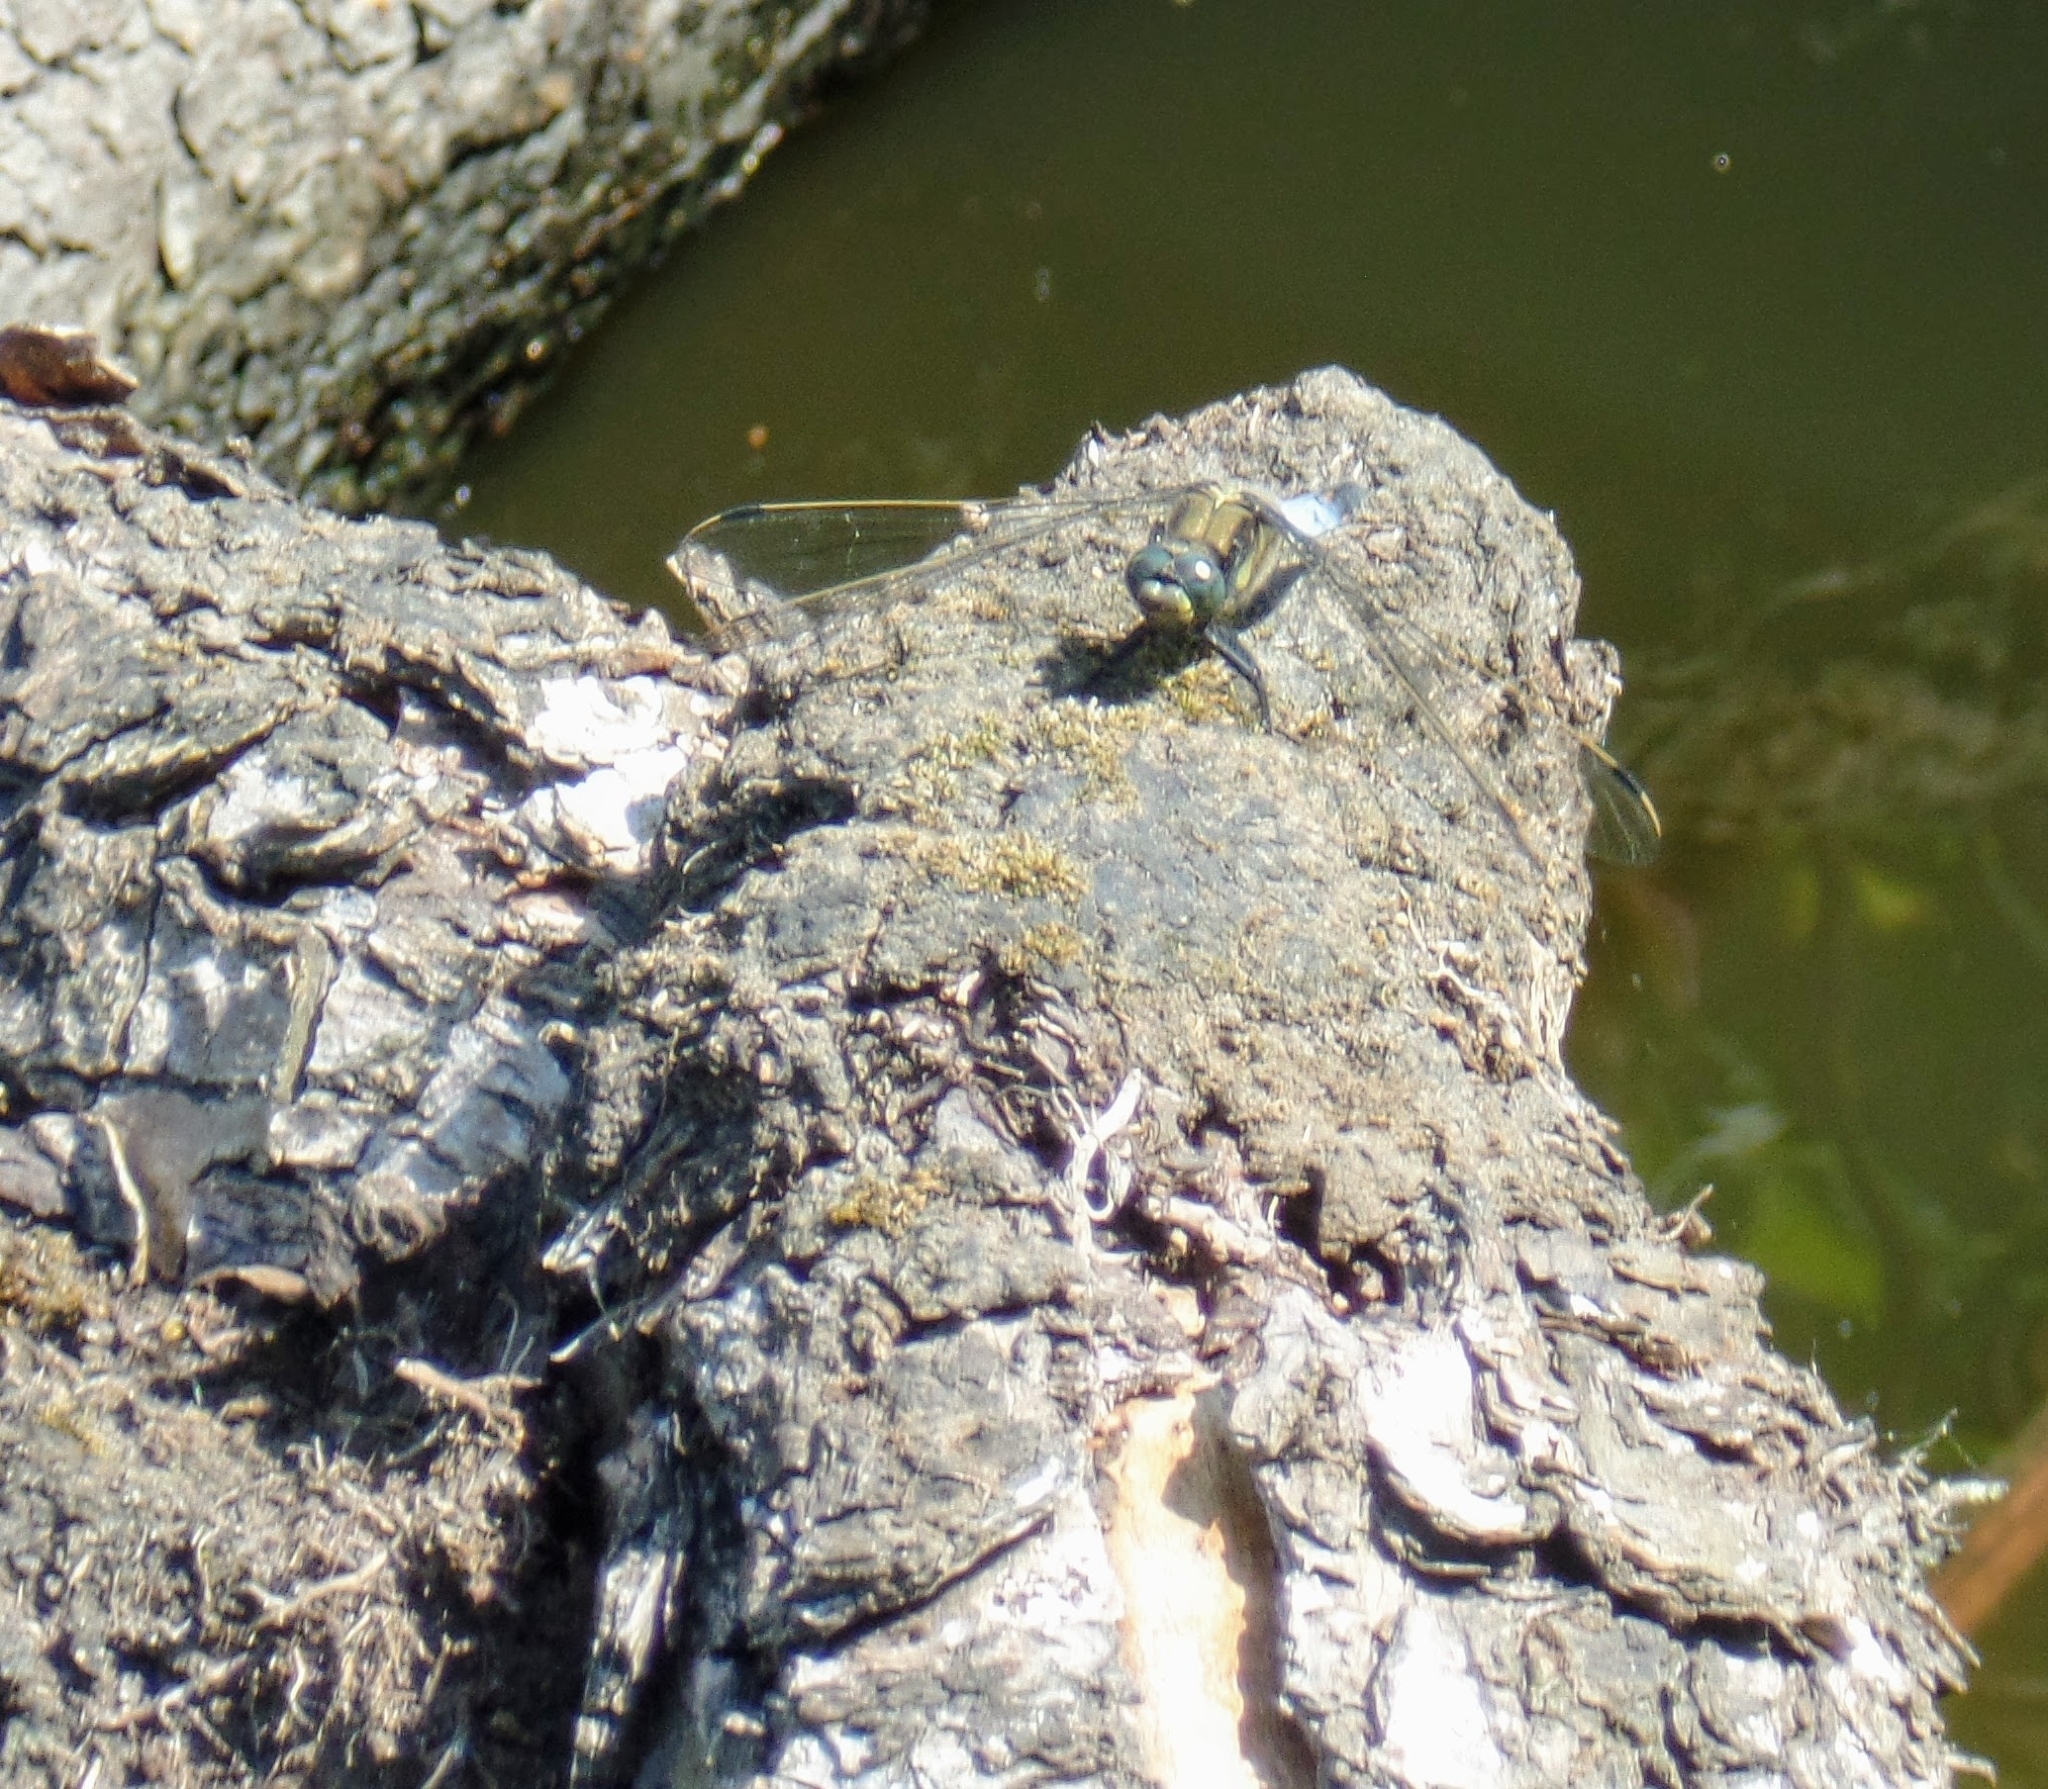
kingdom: Animalia
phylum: Arthropoda
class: Insecta
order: Odonata
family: Libellulidae
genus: Orthetrum
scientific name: Orthetrum cancellatum
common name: Black-tailed skimmer
